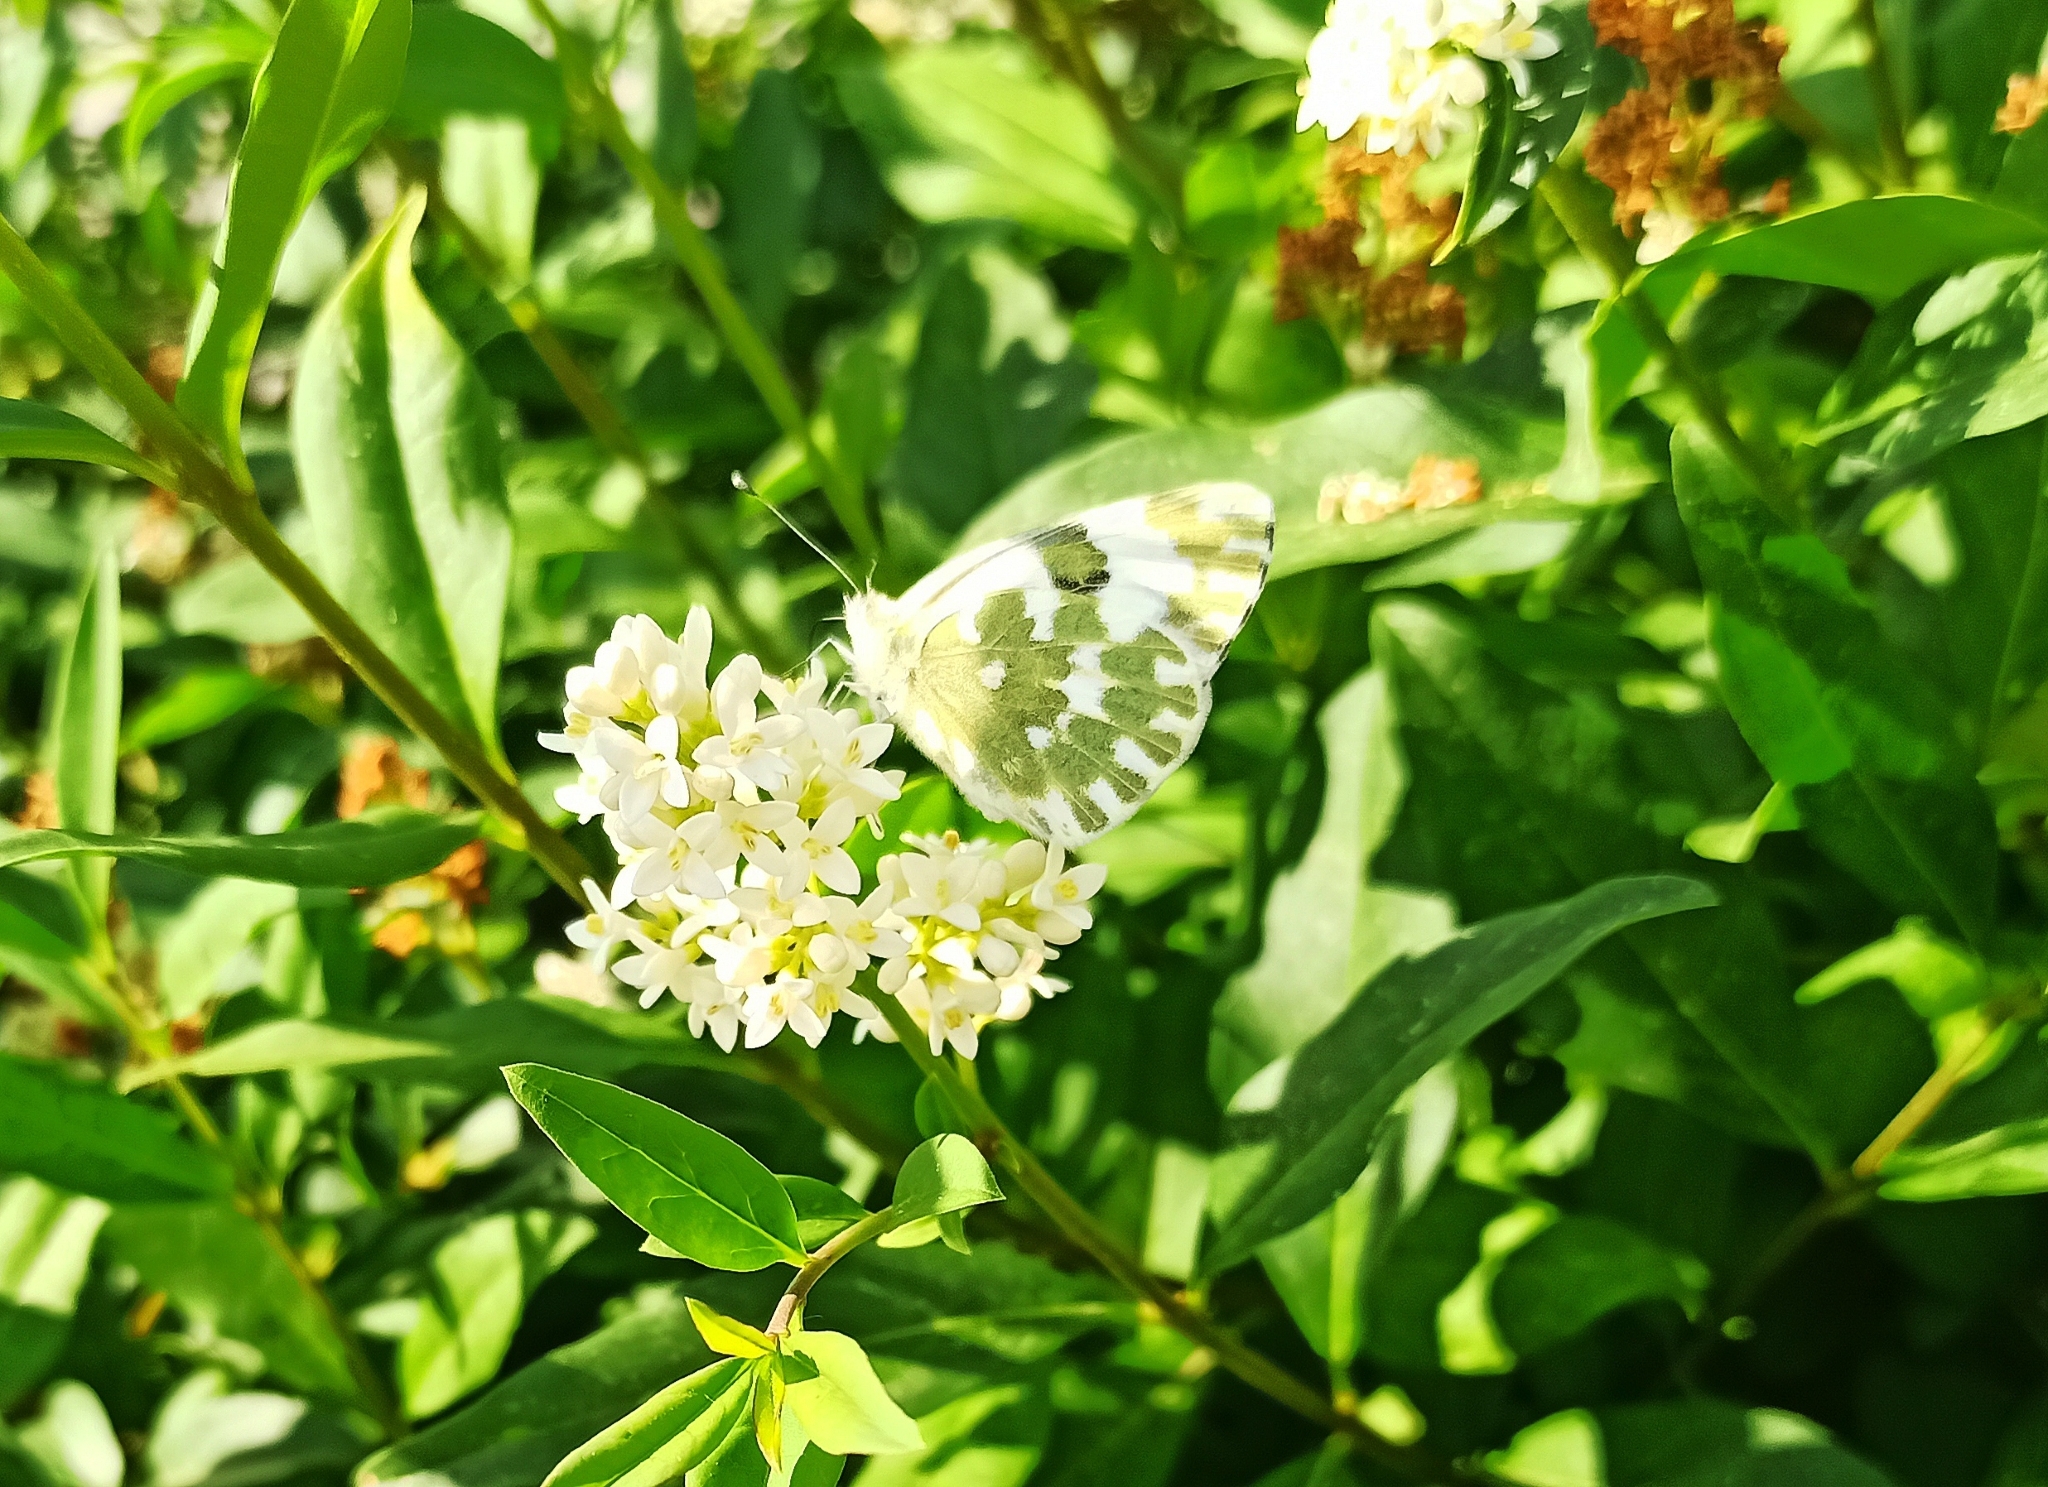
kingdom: Animalia
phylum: Arthropoda
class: Insecta
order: Lepidoptera
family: Pieridae
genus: Pontia
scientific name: Pontia edusa
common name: Eastern bath white
